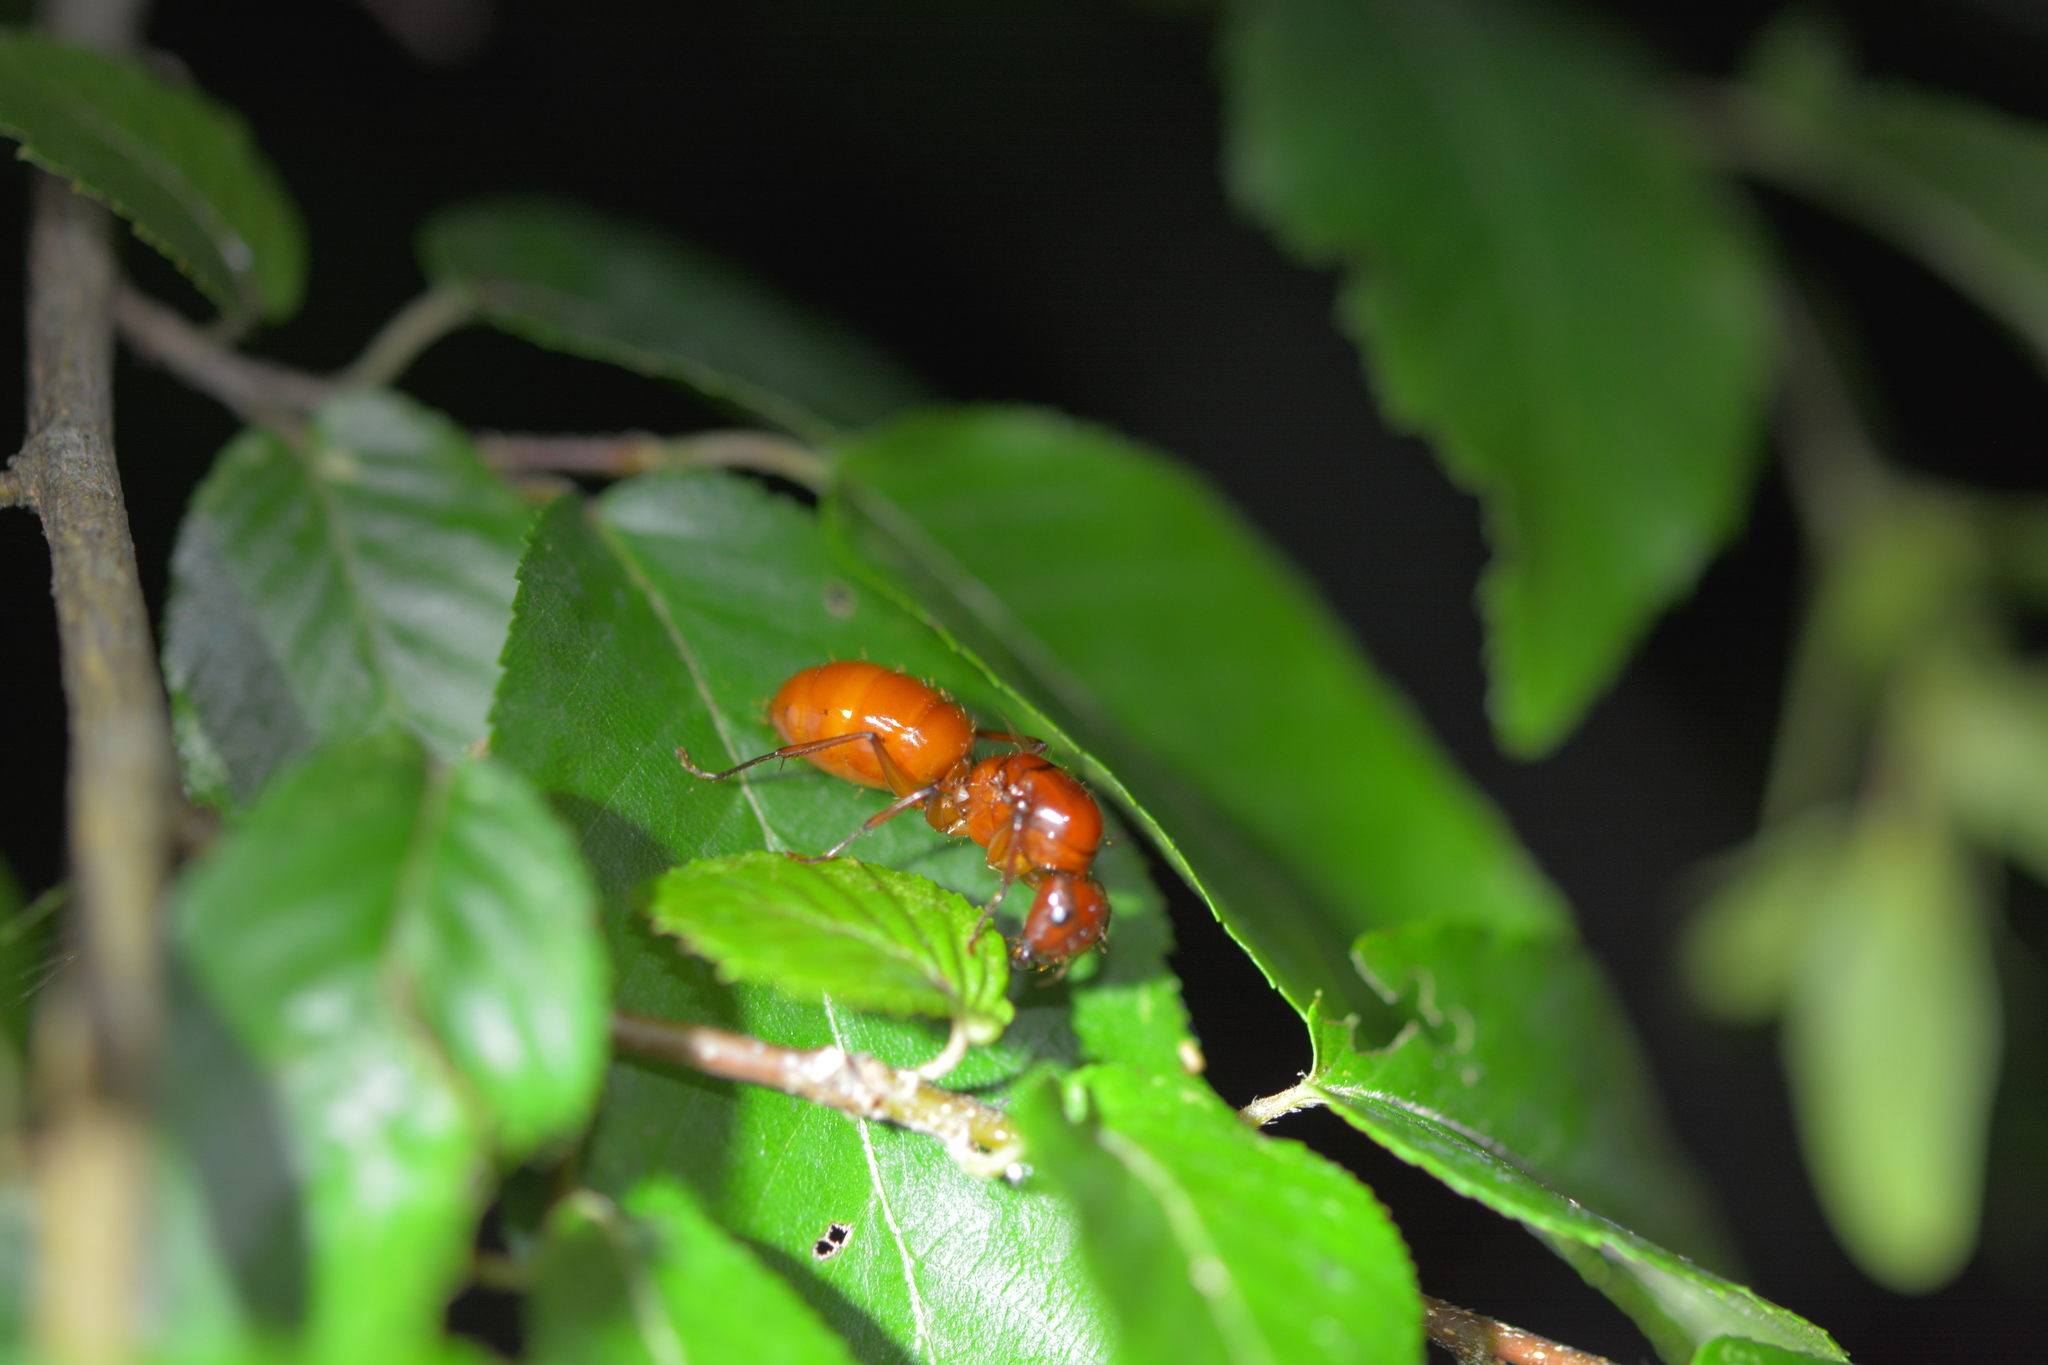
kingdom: Animalia
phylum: Arthropoda
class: Insecta
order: Hymenoptera
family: Formicidae
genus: Camponotus
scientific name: Camponotus castaneus
